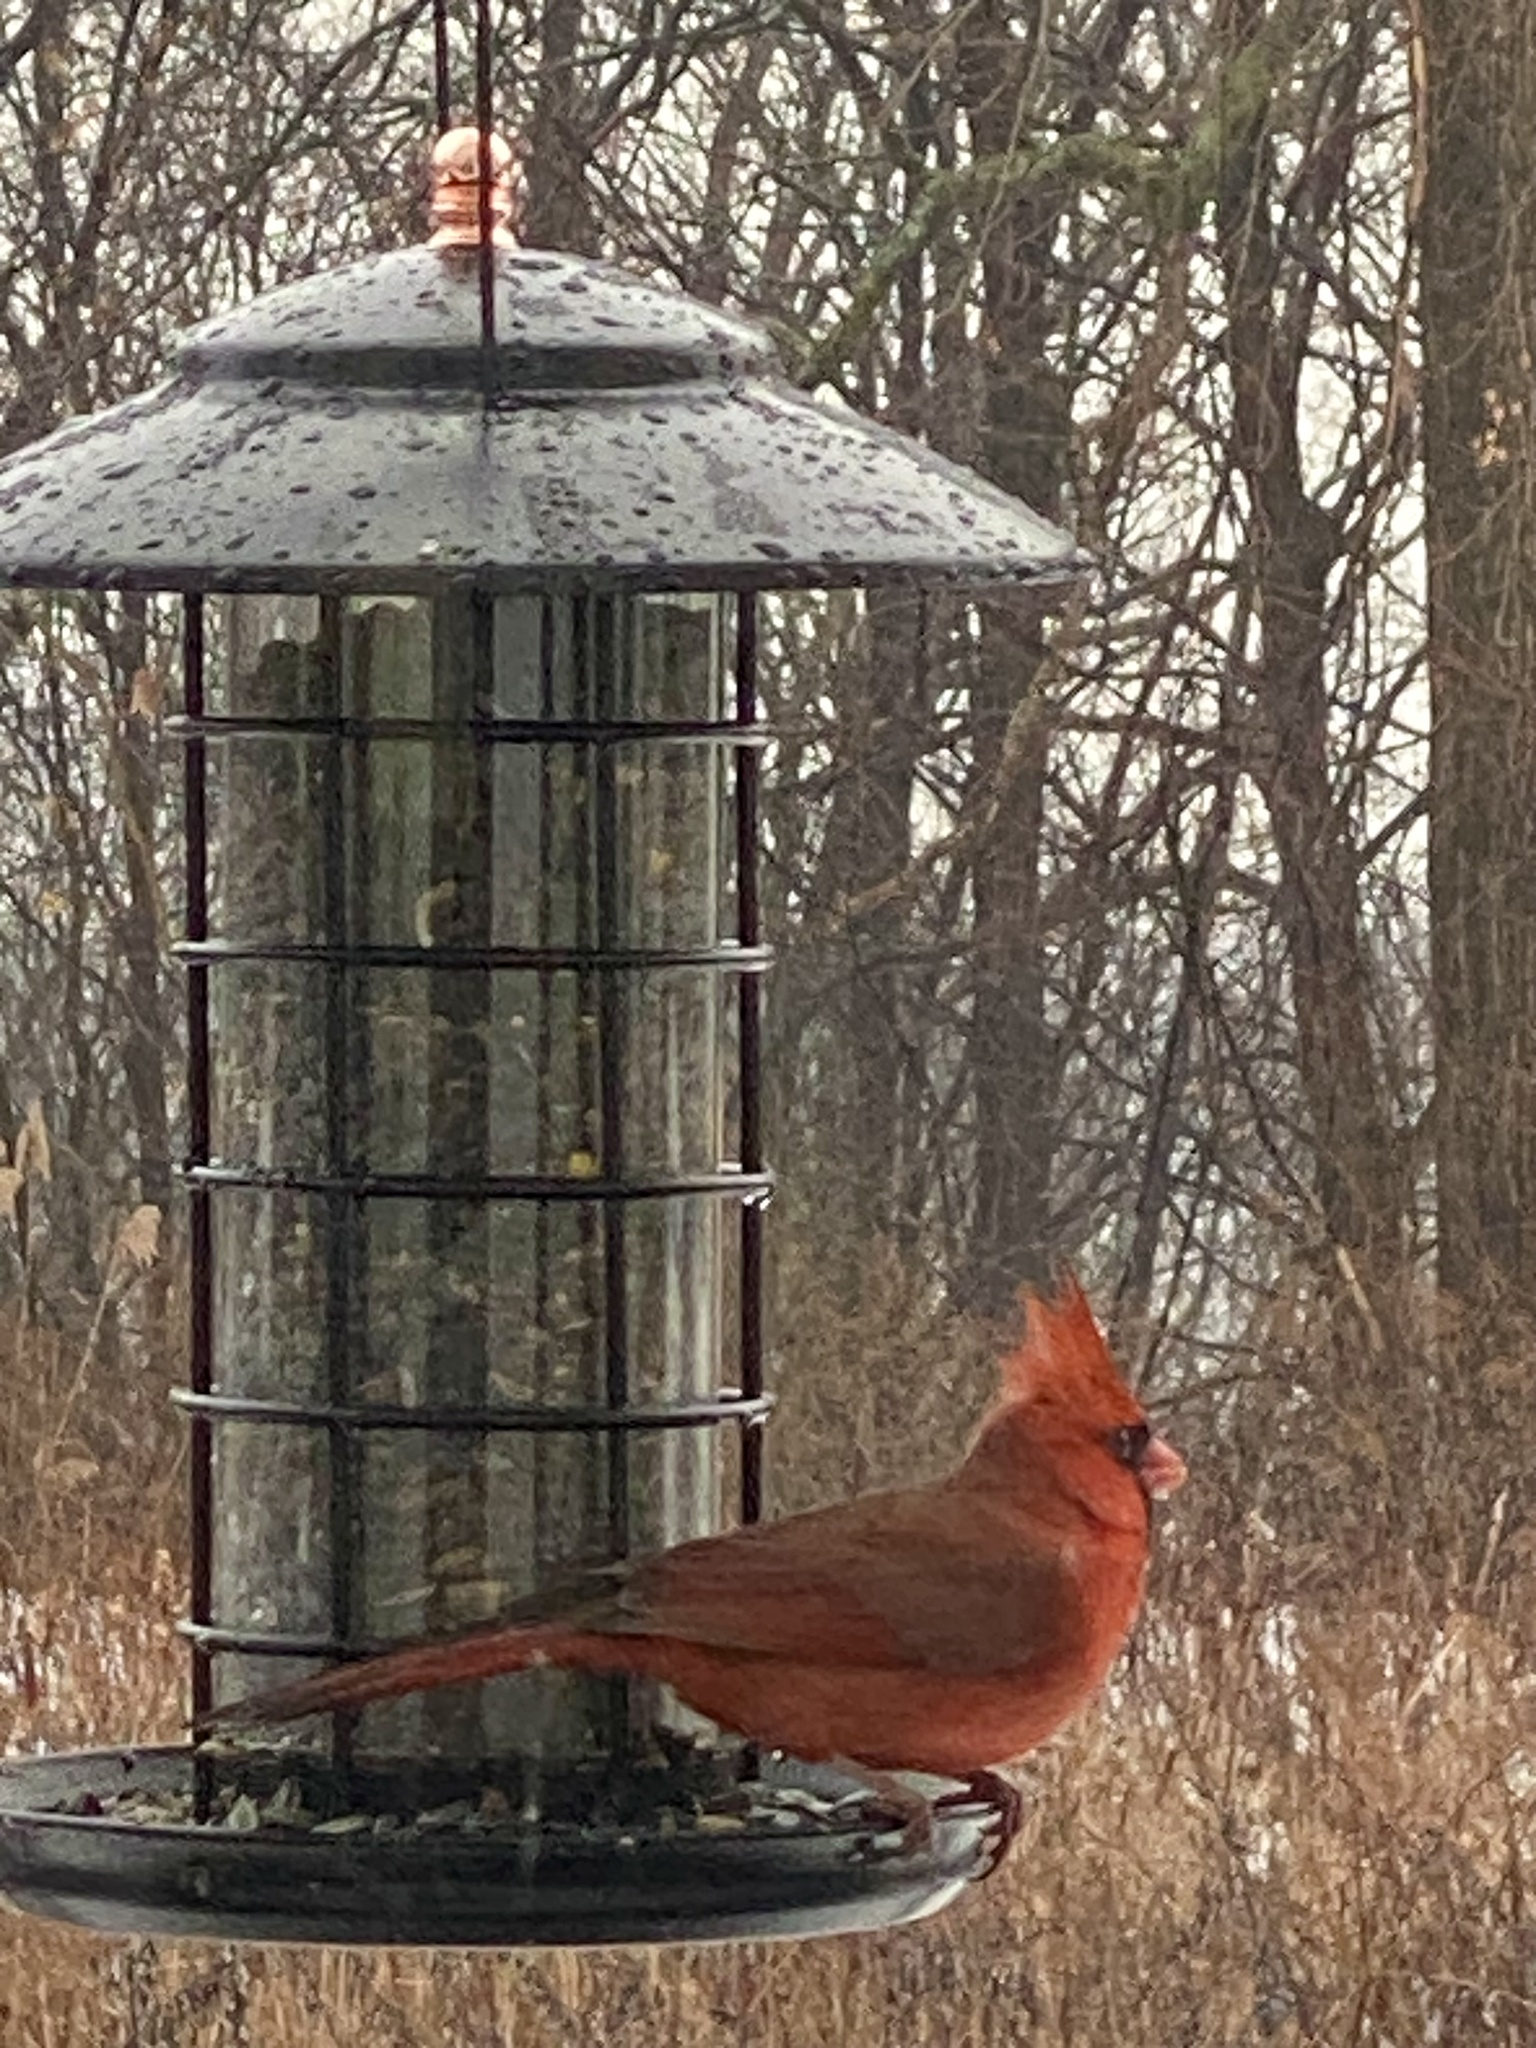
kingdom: Animalia
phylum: Chordata
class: Aves
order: Passeriformes
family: Cardinalidae
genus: Cardinalis
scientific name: Cardinalis cardinalis
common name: Northern cardinal
